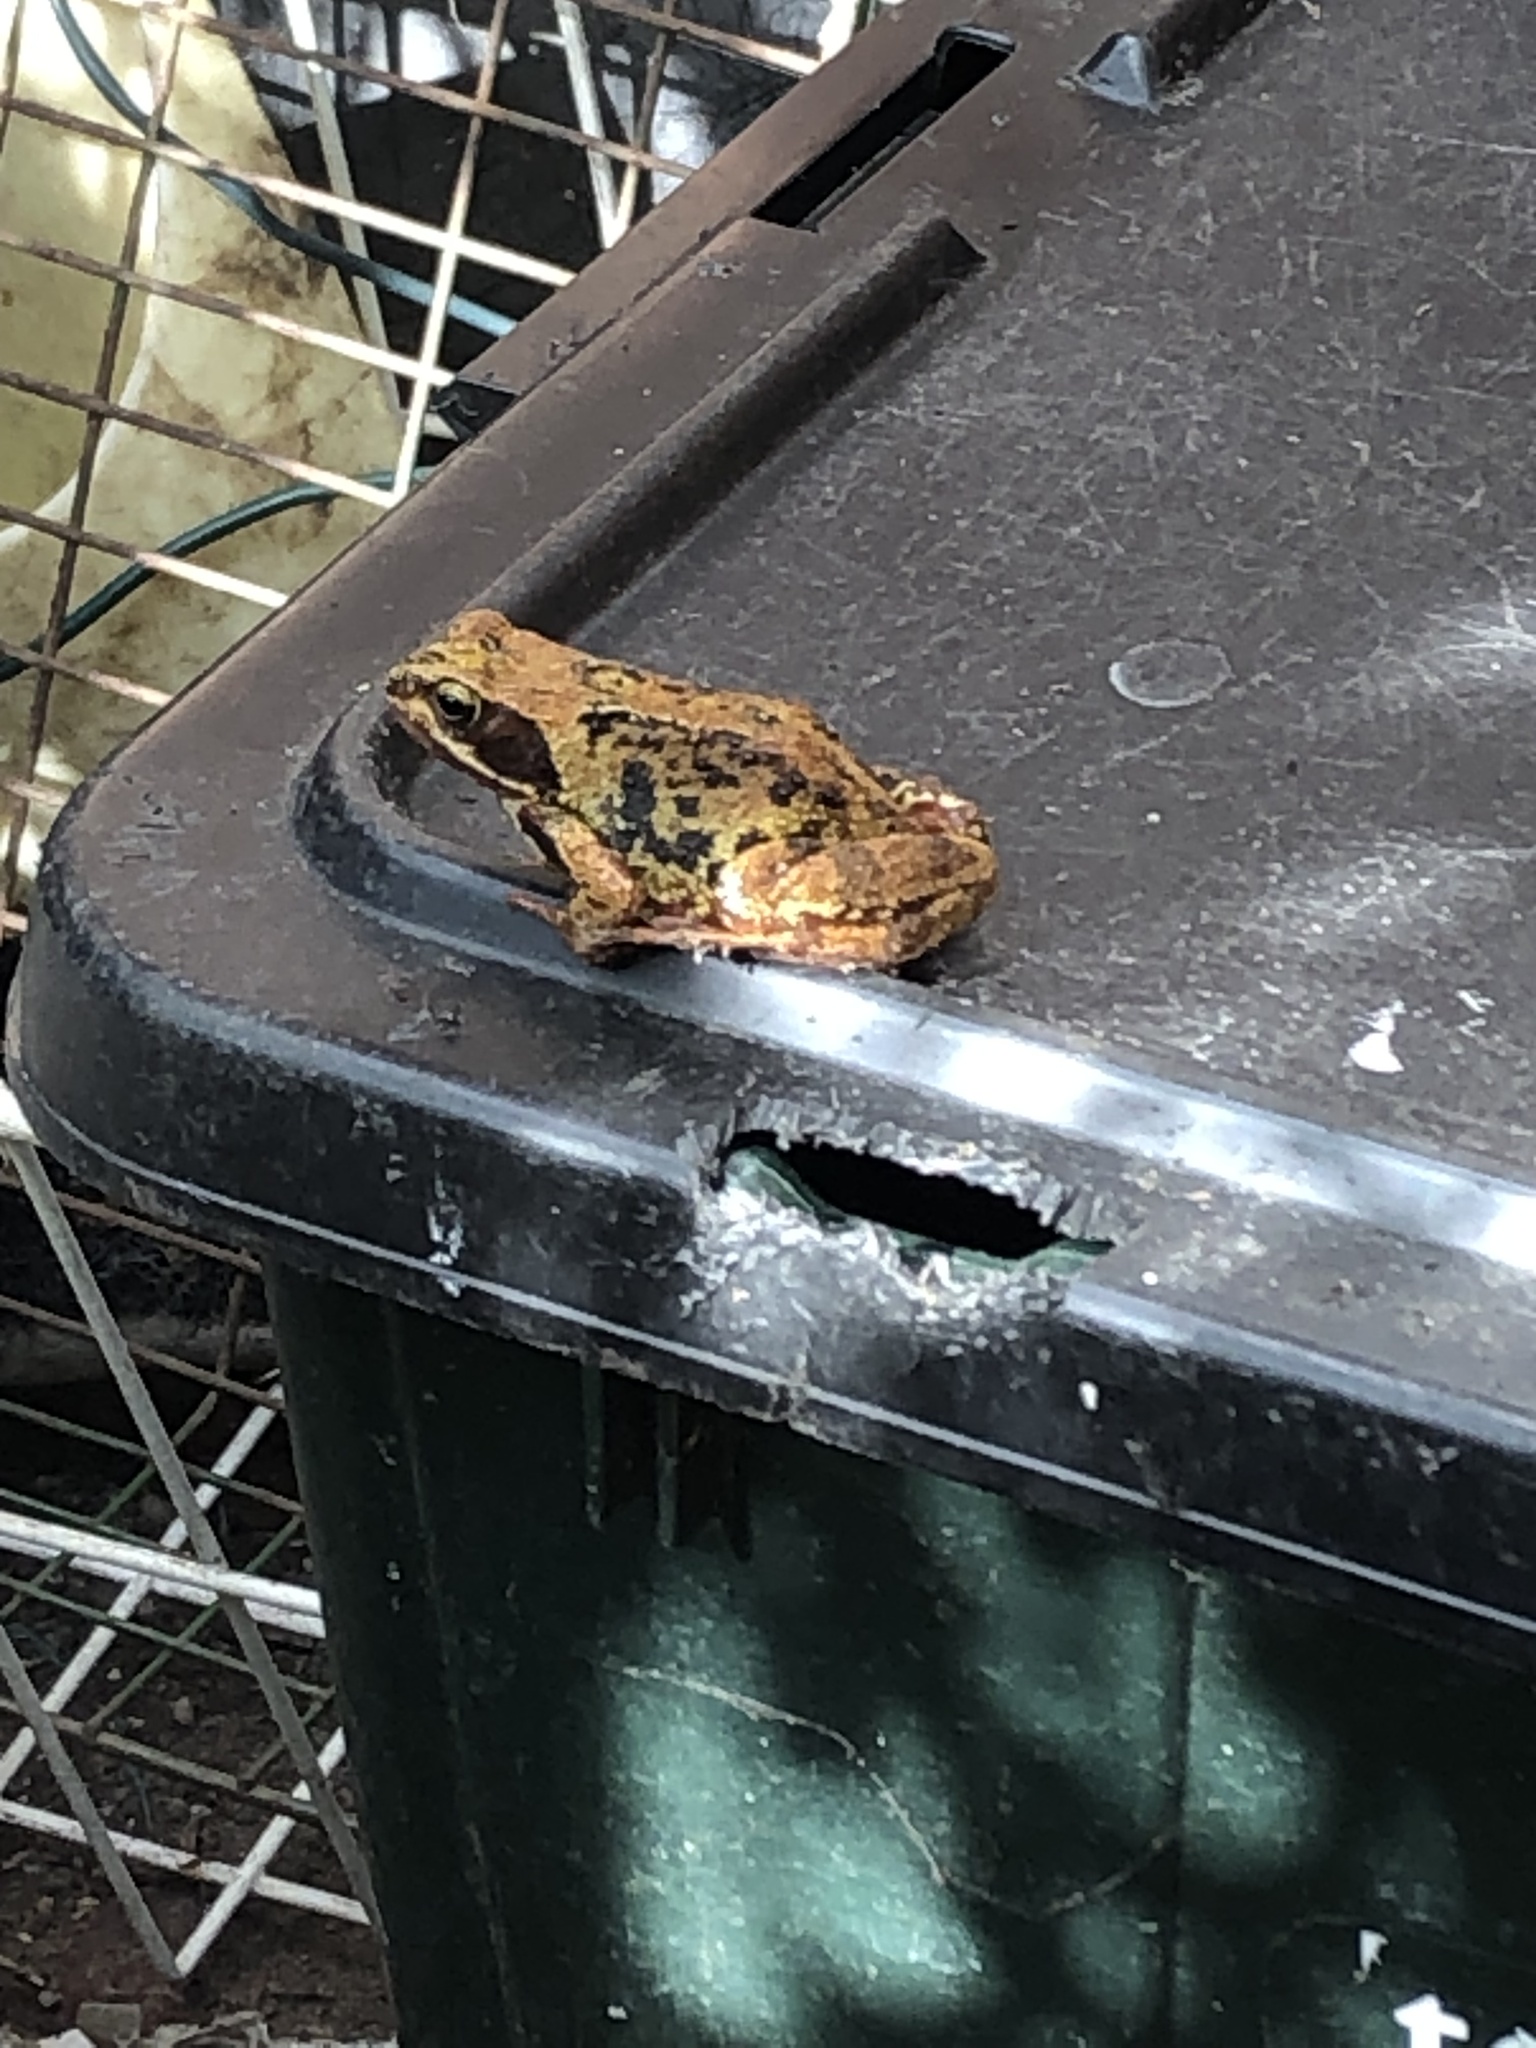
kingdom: Animalia
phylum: Chordata
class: Amphibia
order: Anura
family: Ranidae
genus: Rana
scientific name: Rana temporaria
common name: Common frog
